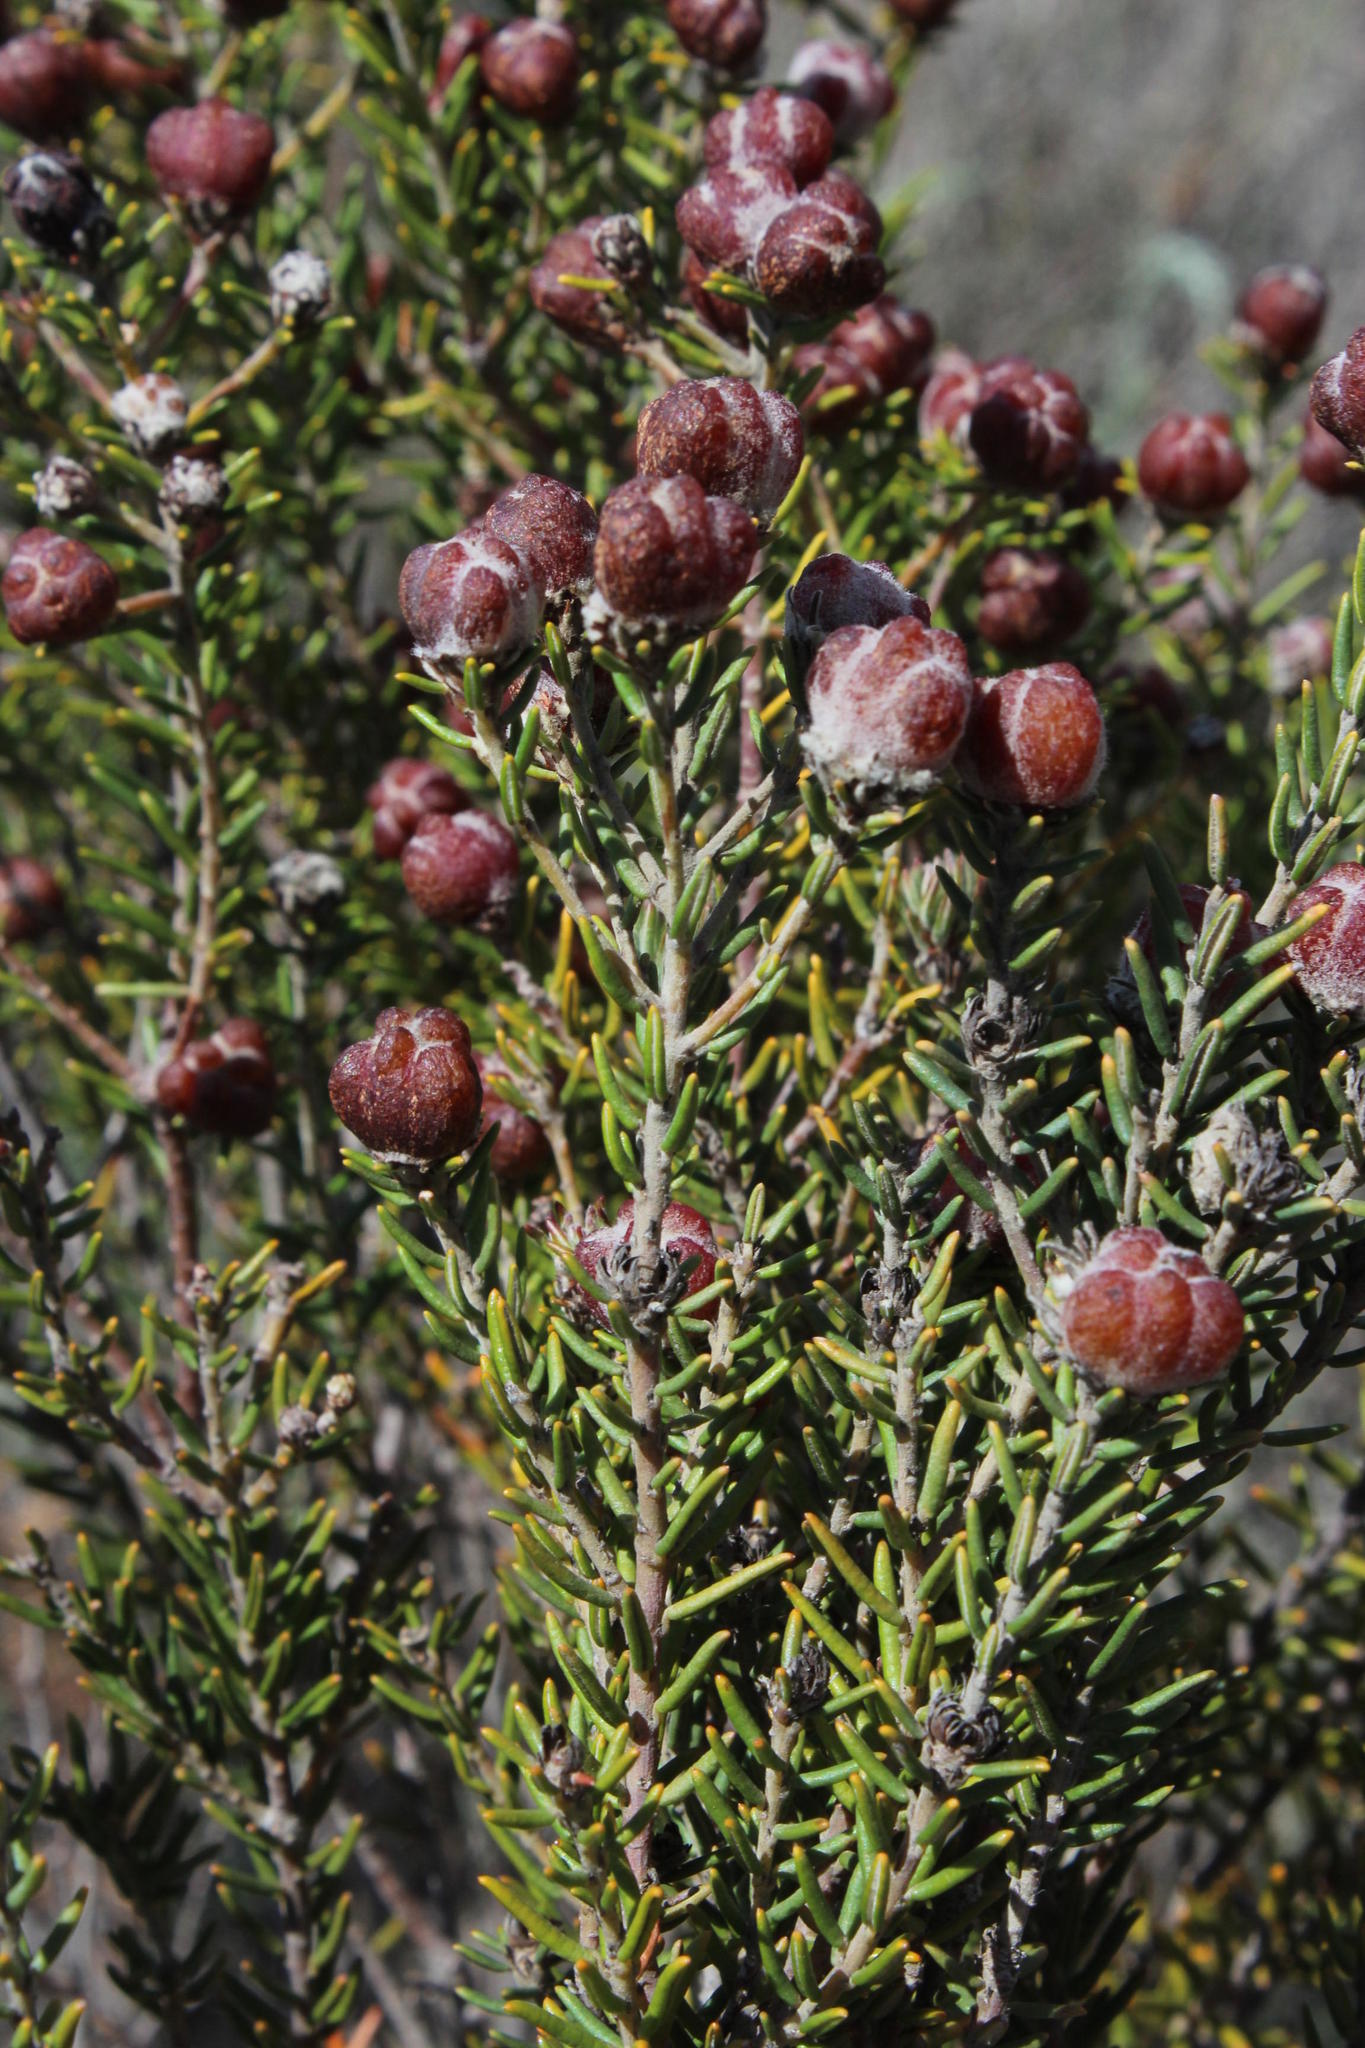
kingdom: Plantae
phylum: Tracheophyta
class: Magnoliopsida
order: Rosales
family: Rhamnaceae
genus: Trichocephalus
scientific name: Trichocephalus stipularis
